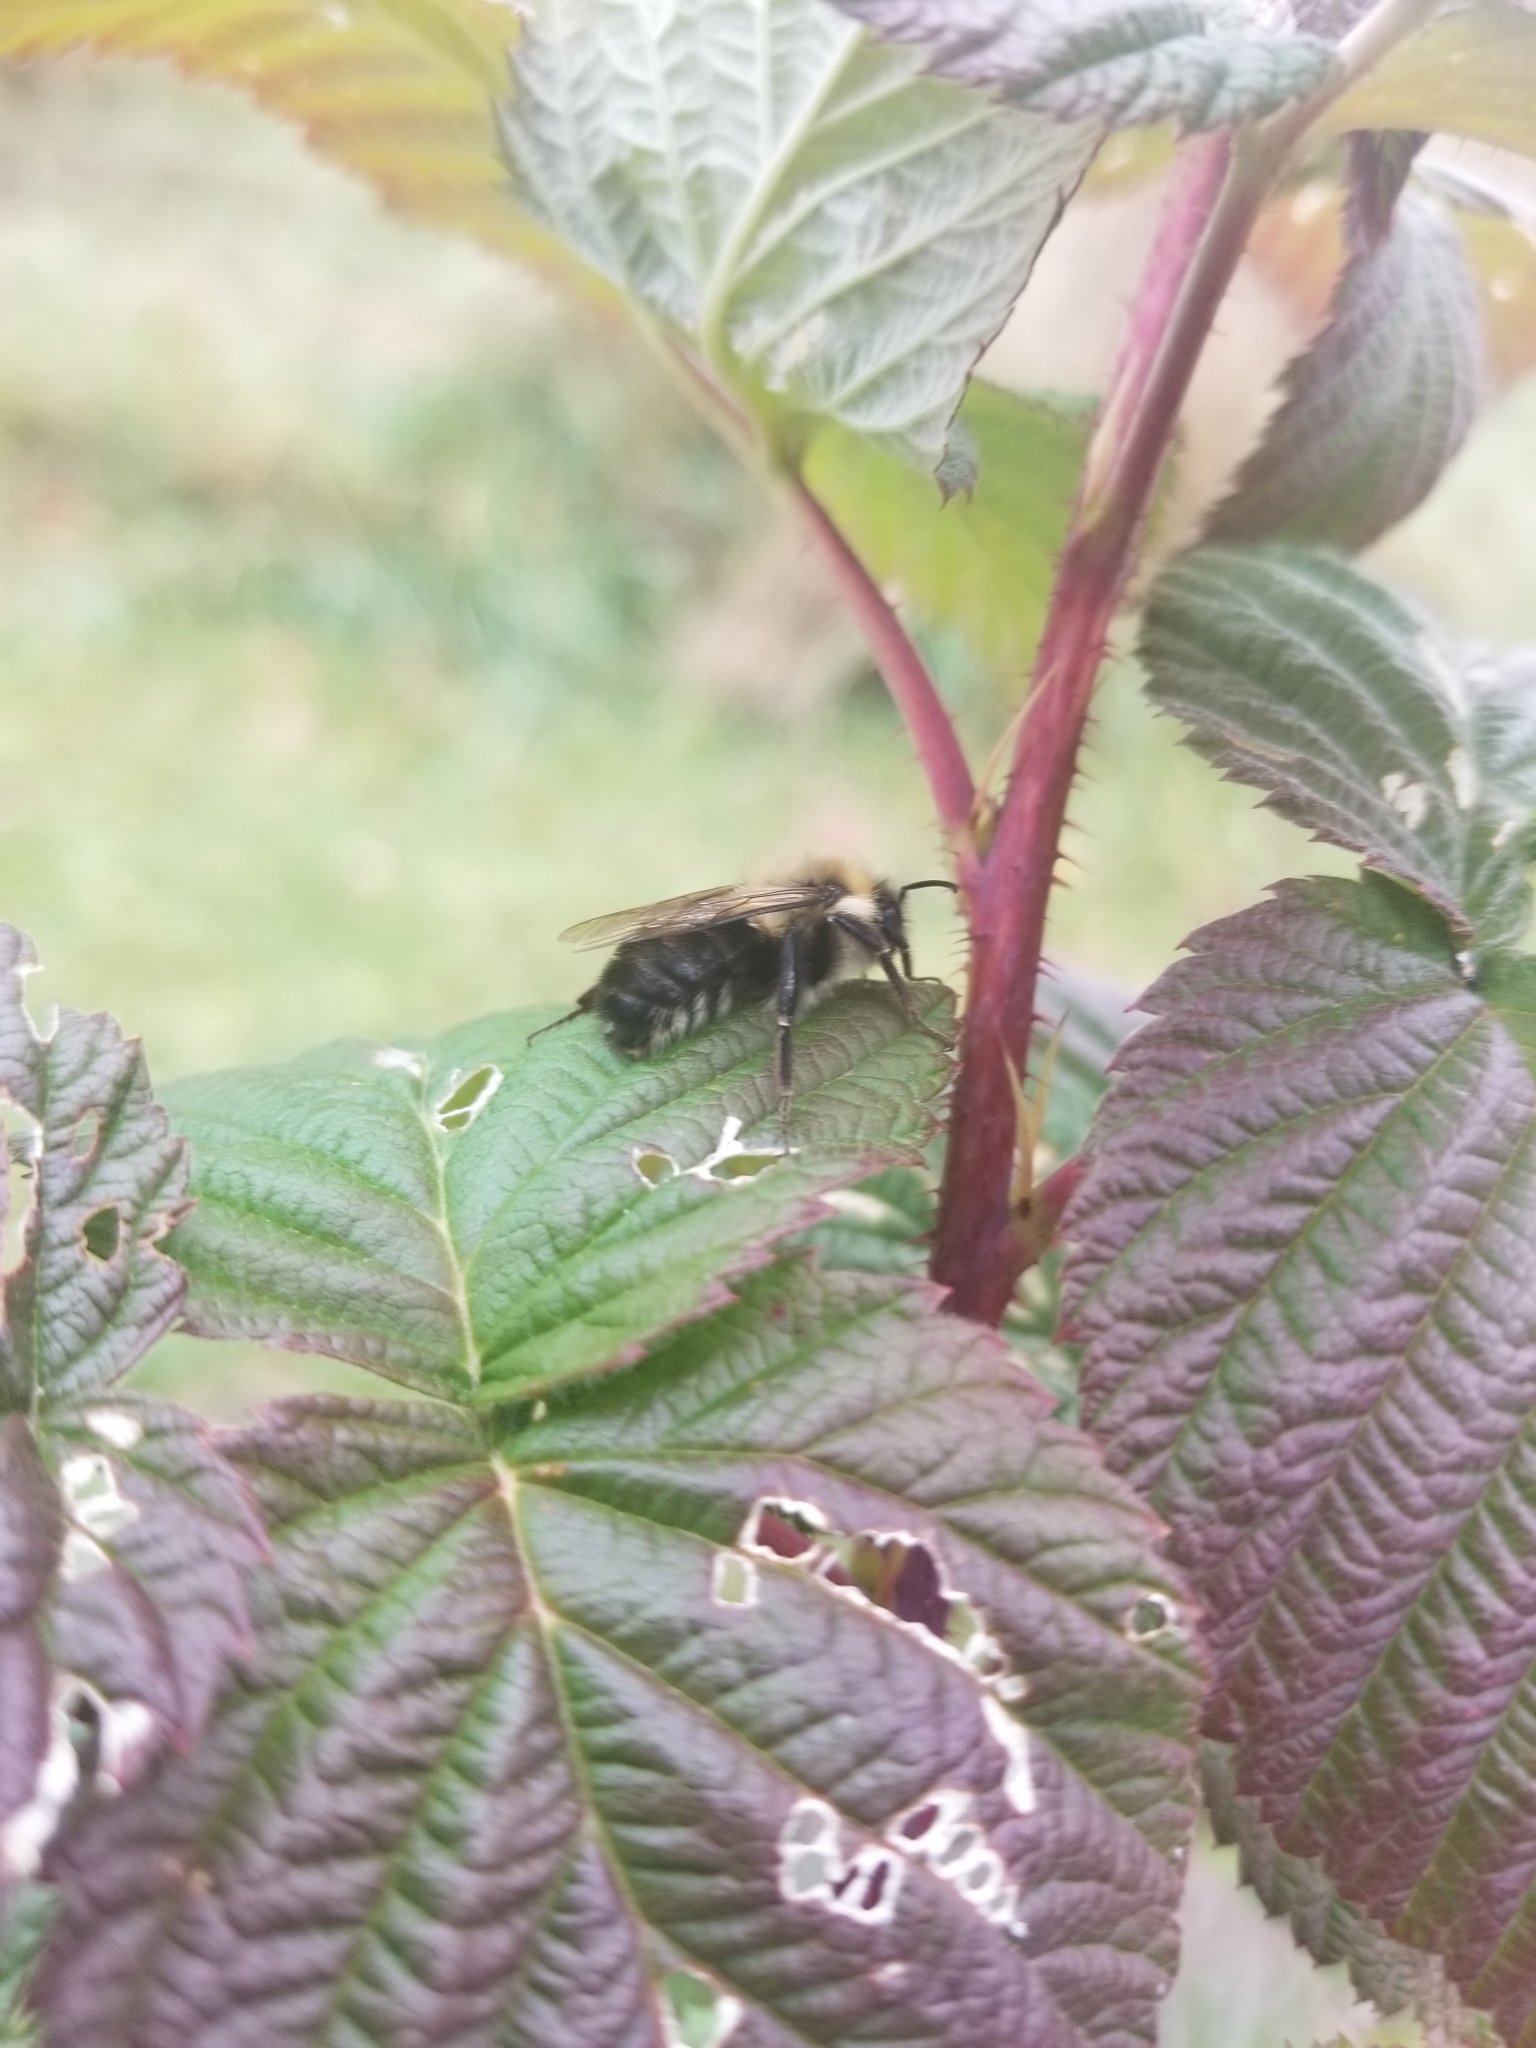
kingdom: Animalia
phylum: Arthropoda
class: Insecta
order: Hymenoptera
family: Apidae
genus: Bombus
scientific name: Bombus impatiens
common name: Common eastern bumble bee
